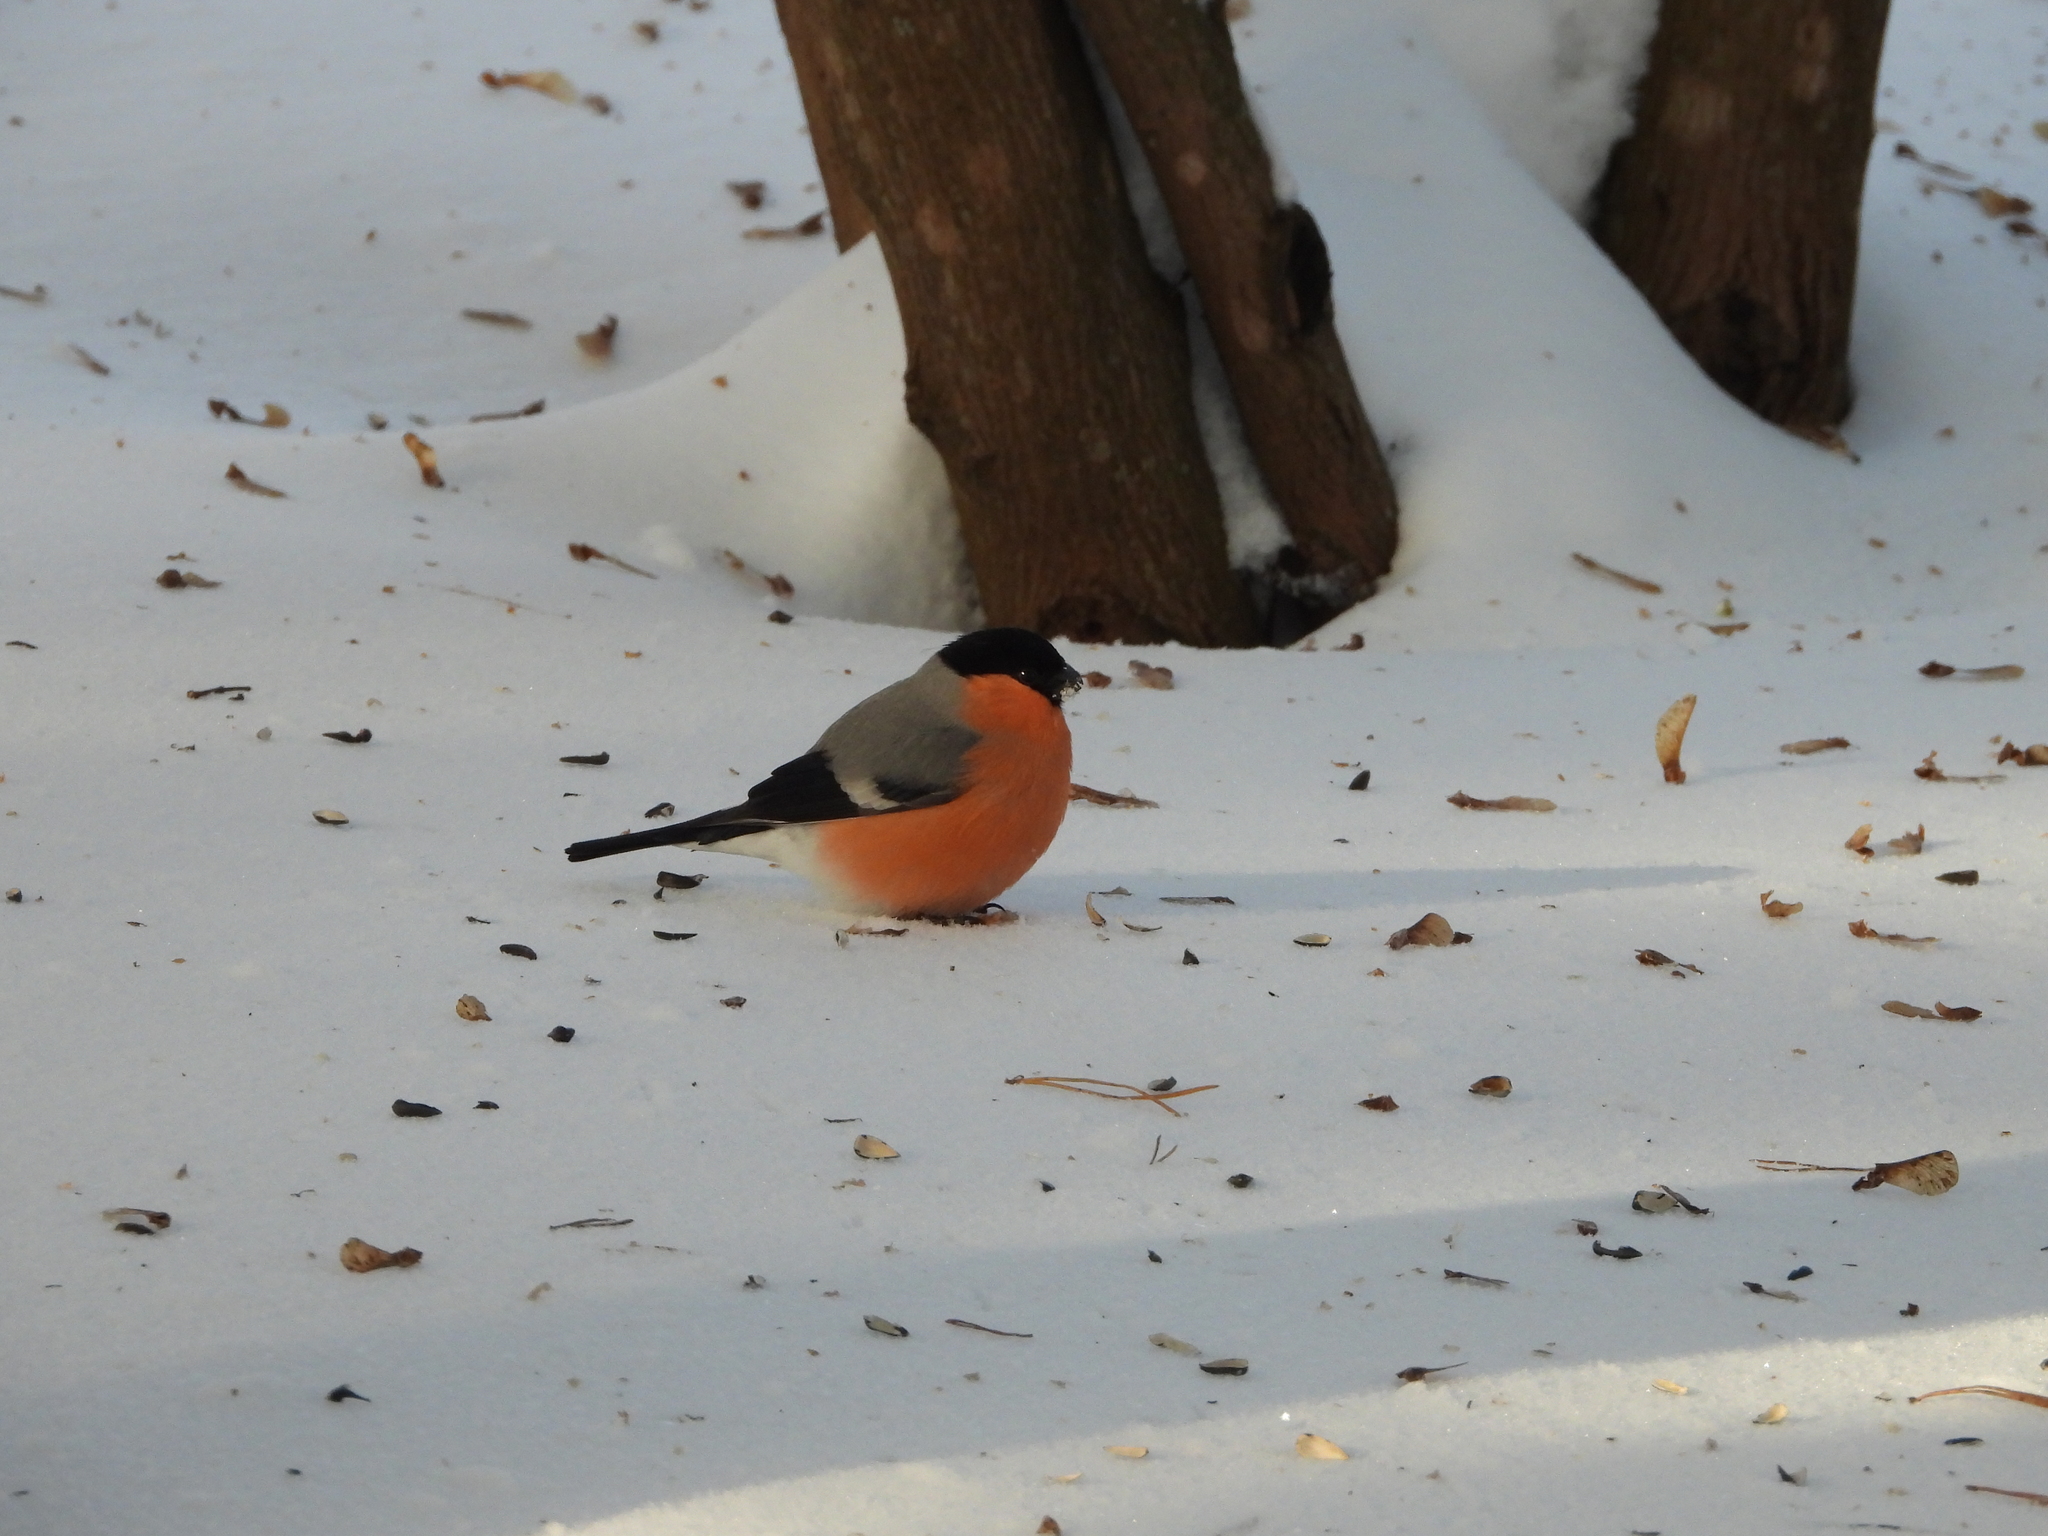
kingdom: Animalia
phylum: Chordata
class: Aves
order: Passeriformes
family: Fringillidae
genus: Pyrrhula
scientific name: Pyrrhula pyrrhula
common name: Eurasian bullfinch
